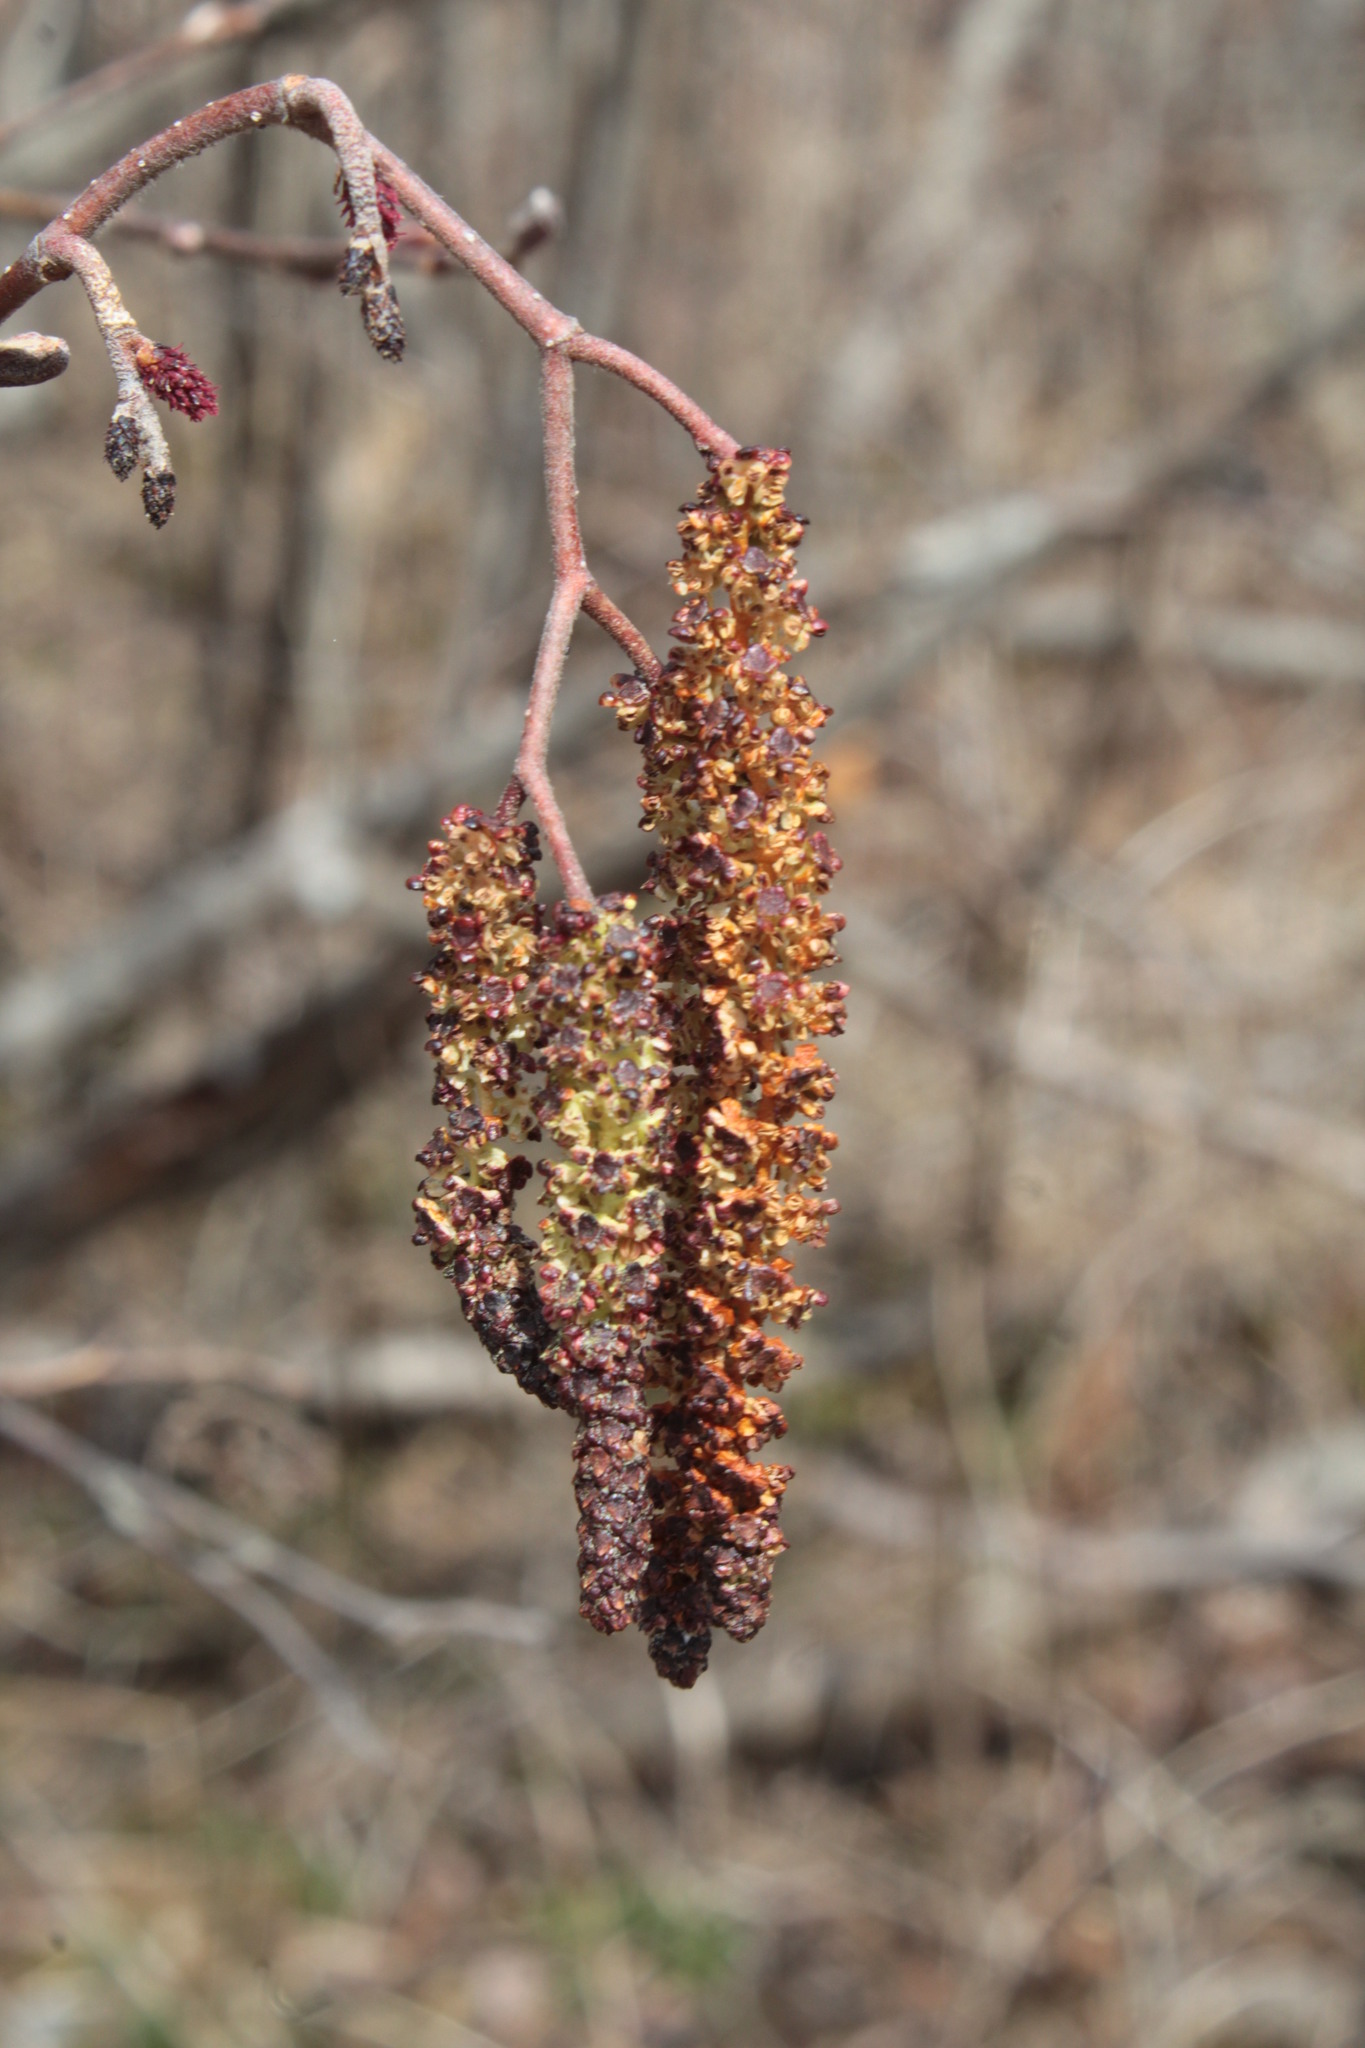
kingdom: Plantae
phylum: Tracheophyta
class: Magnoliopsida
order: Fagales
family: Betulaceae
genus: Alnus
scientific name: Alnus incana
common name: Grey alder
